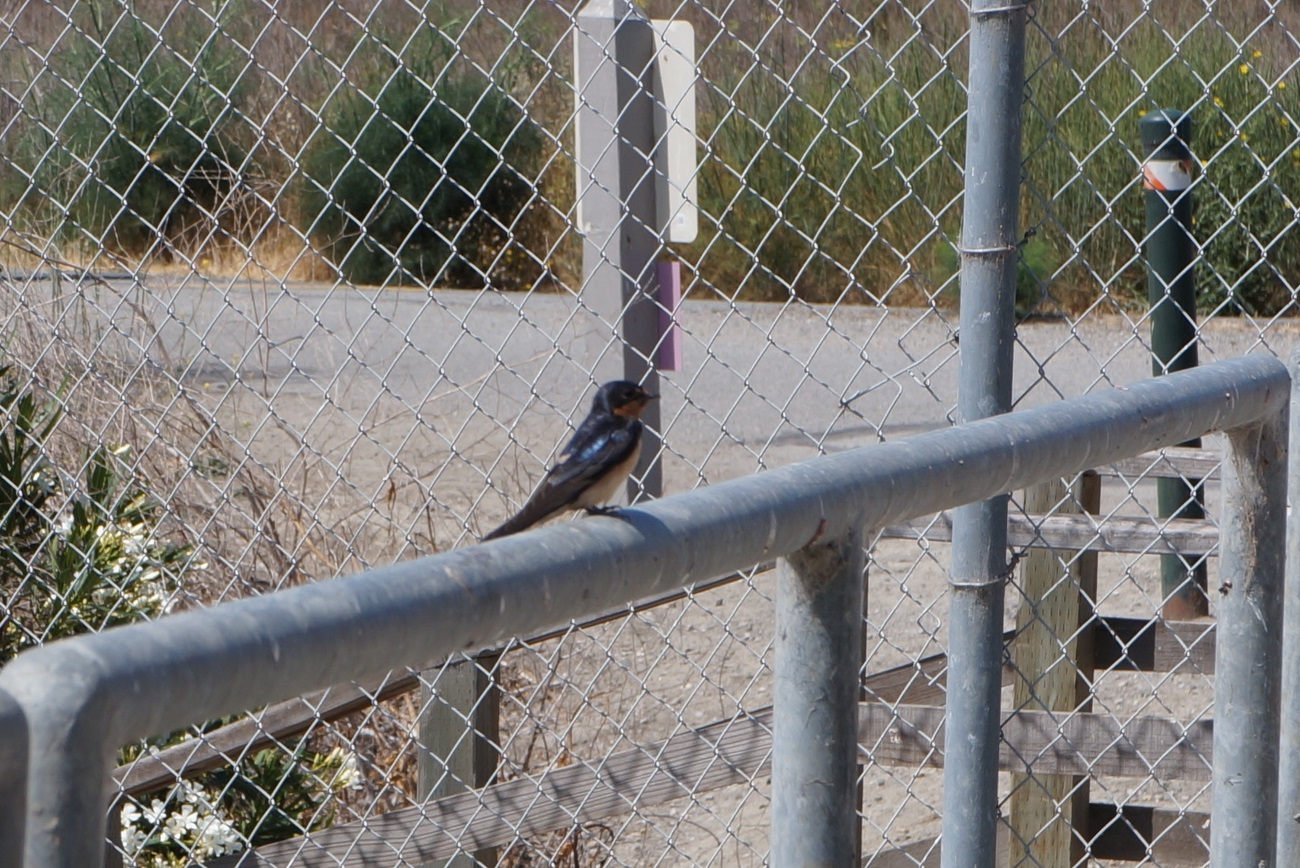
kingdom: Animalia
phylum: Chordata
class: Aves
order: Passeriformes
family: Hirundinidae
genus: Hirundo
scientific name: Hirundo rustica
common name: Barn swallow
